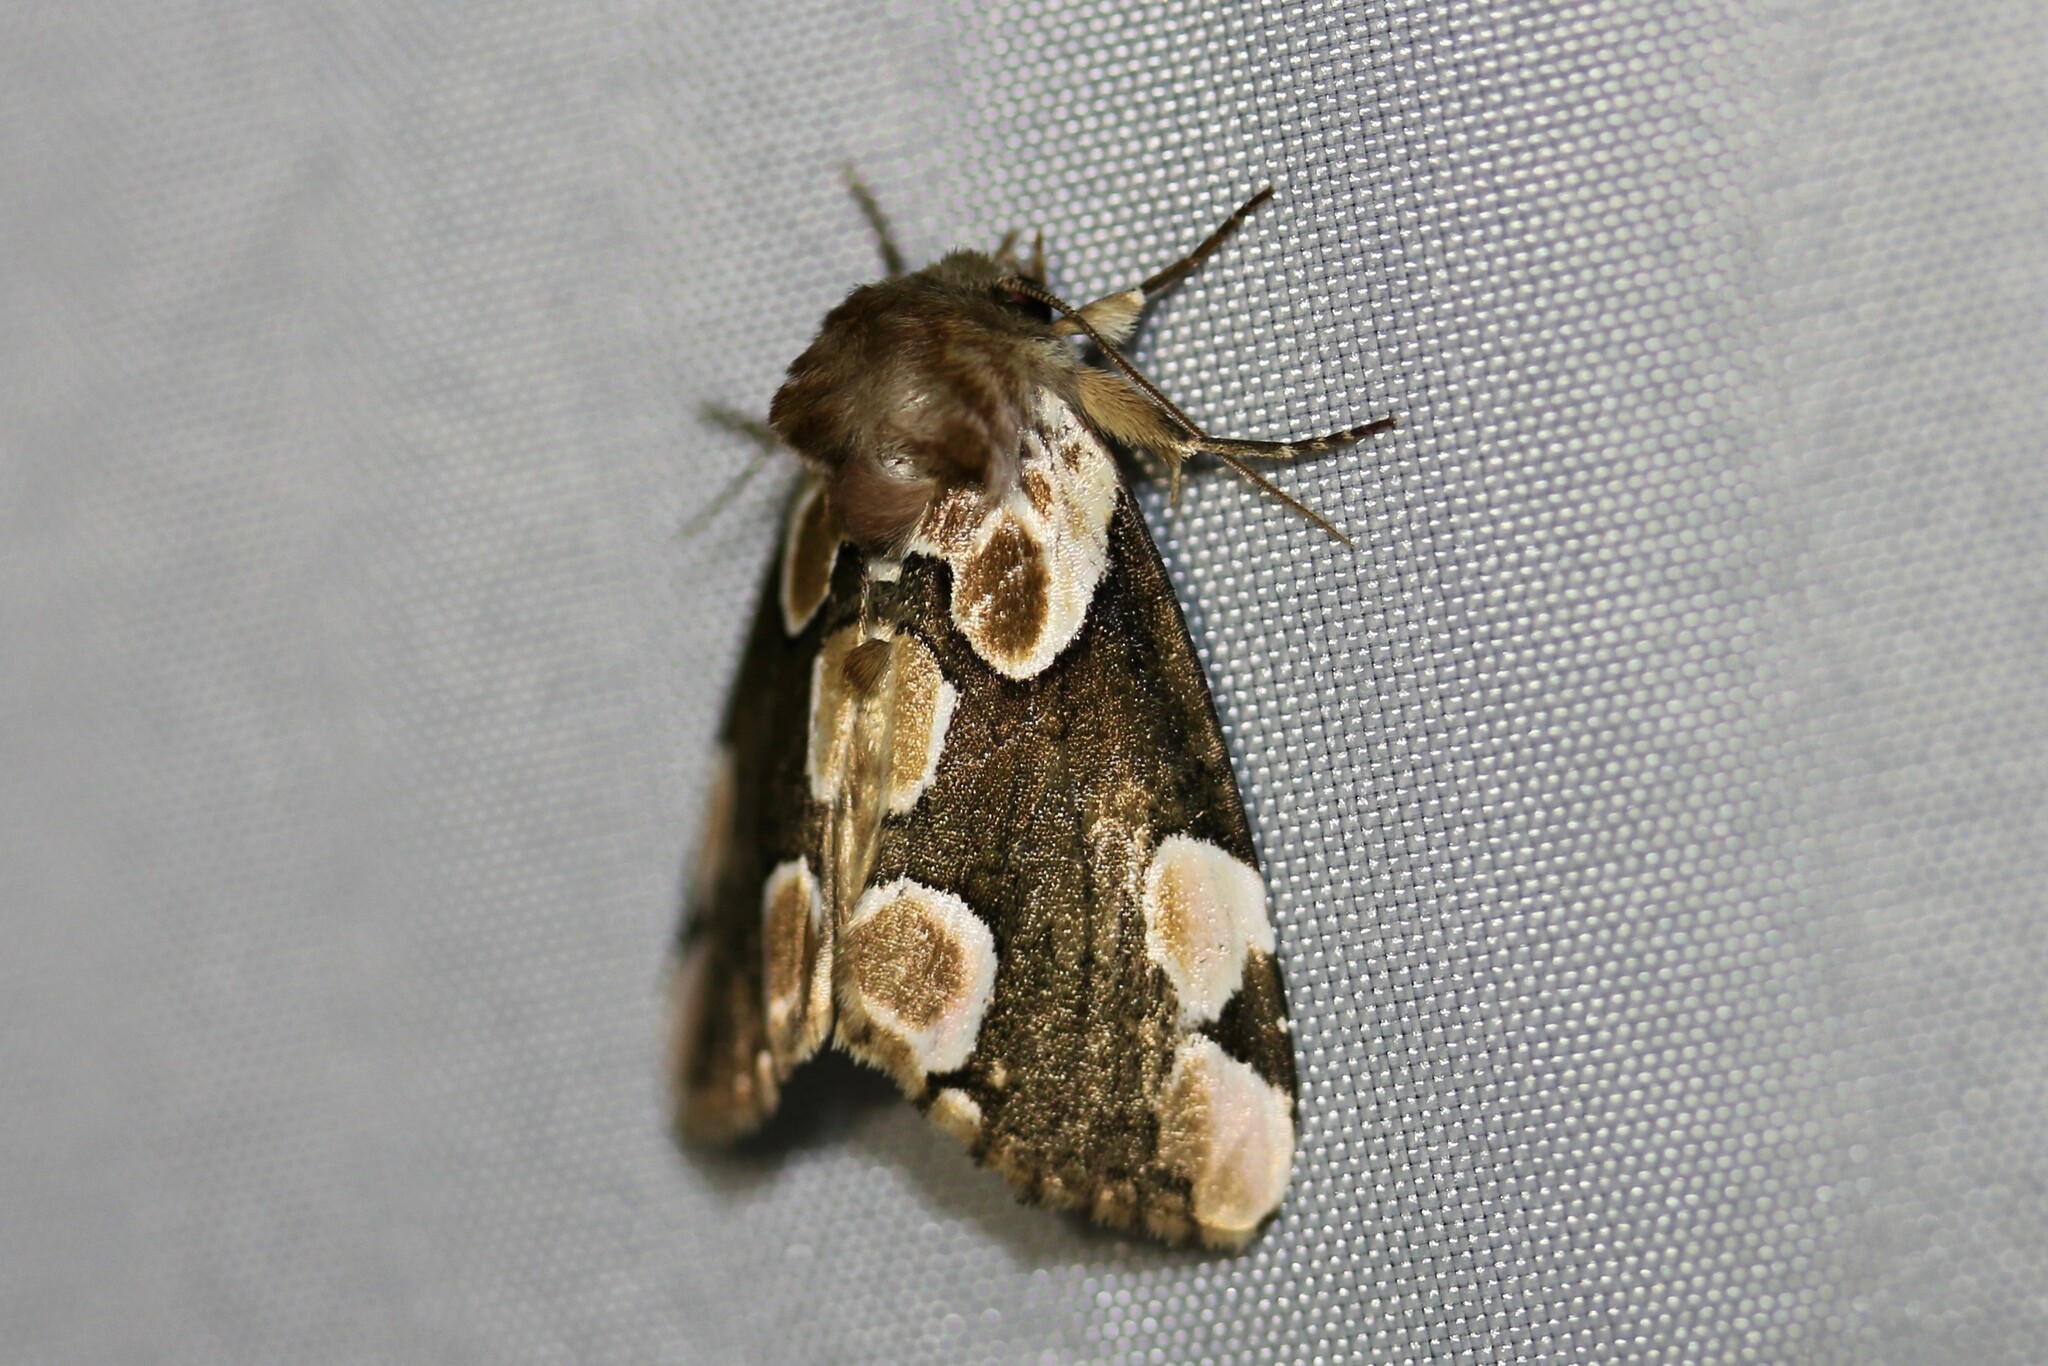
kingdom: Animalia
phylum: Arthropoda
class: Insecta
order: Lepidoptera
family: Drepanidae
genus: Thyatira
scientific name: Thyatira batis
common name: Peach blossom
